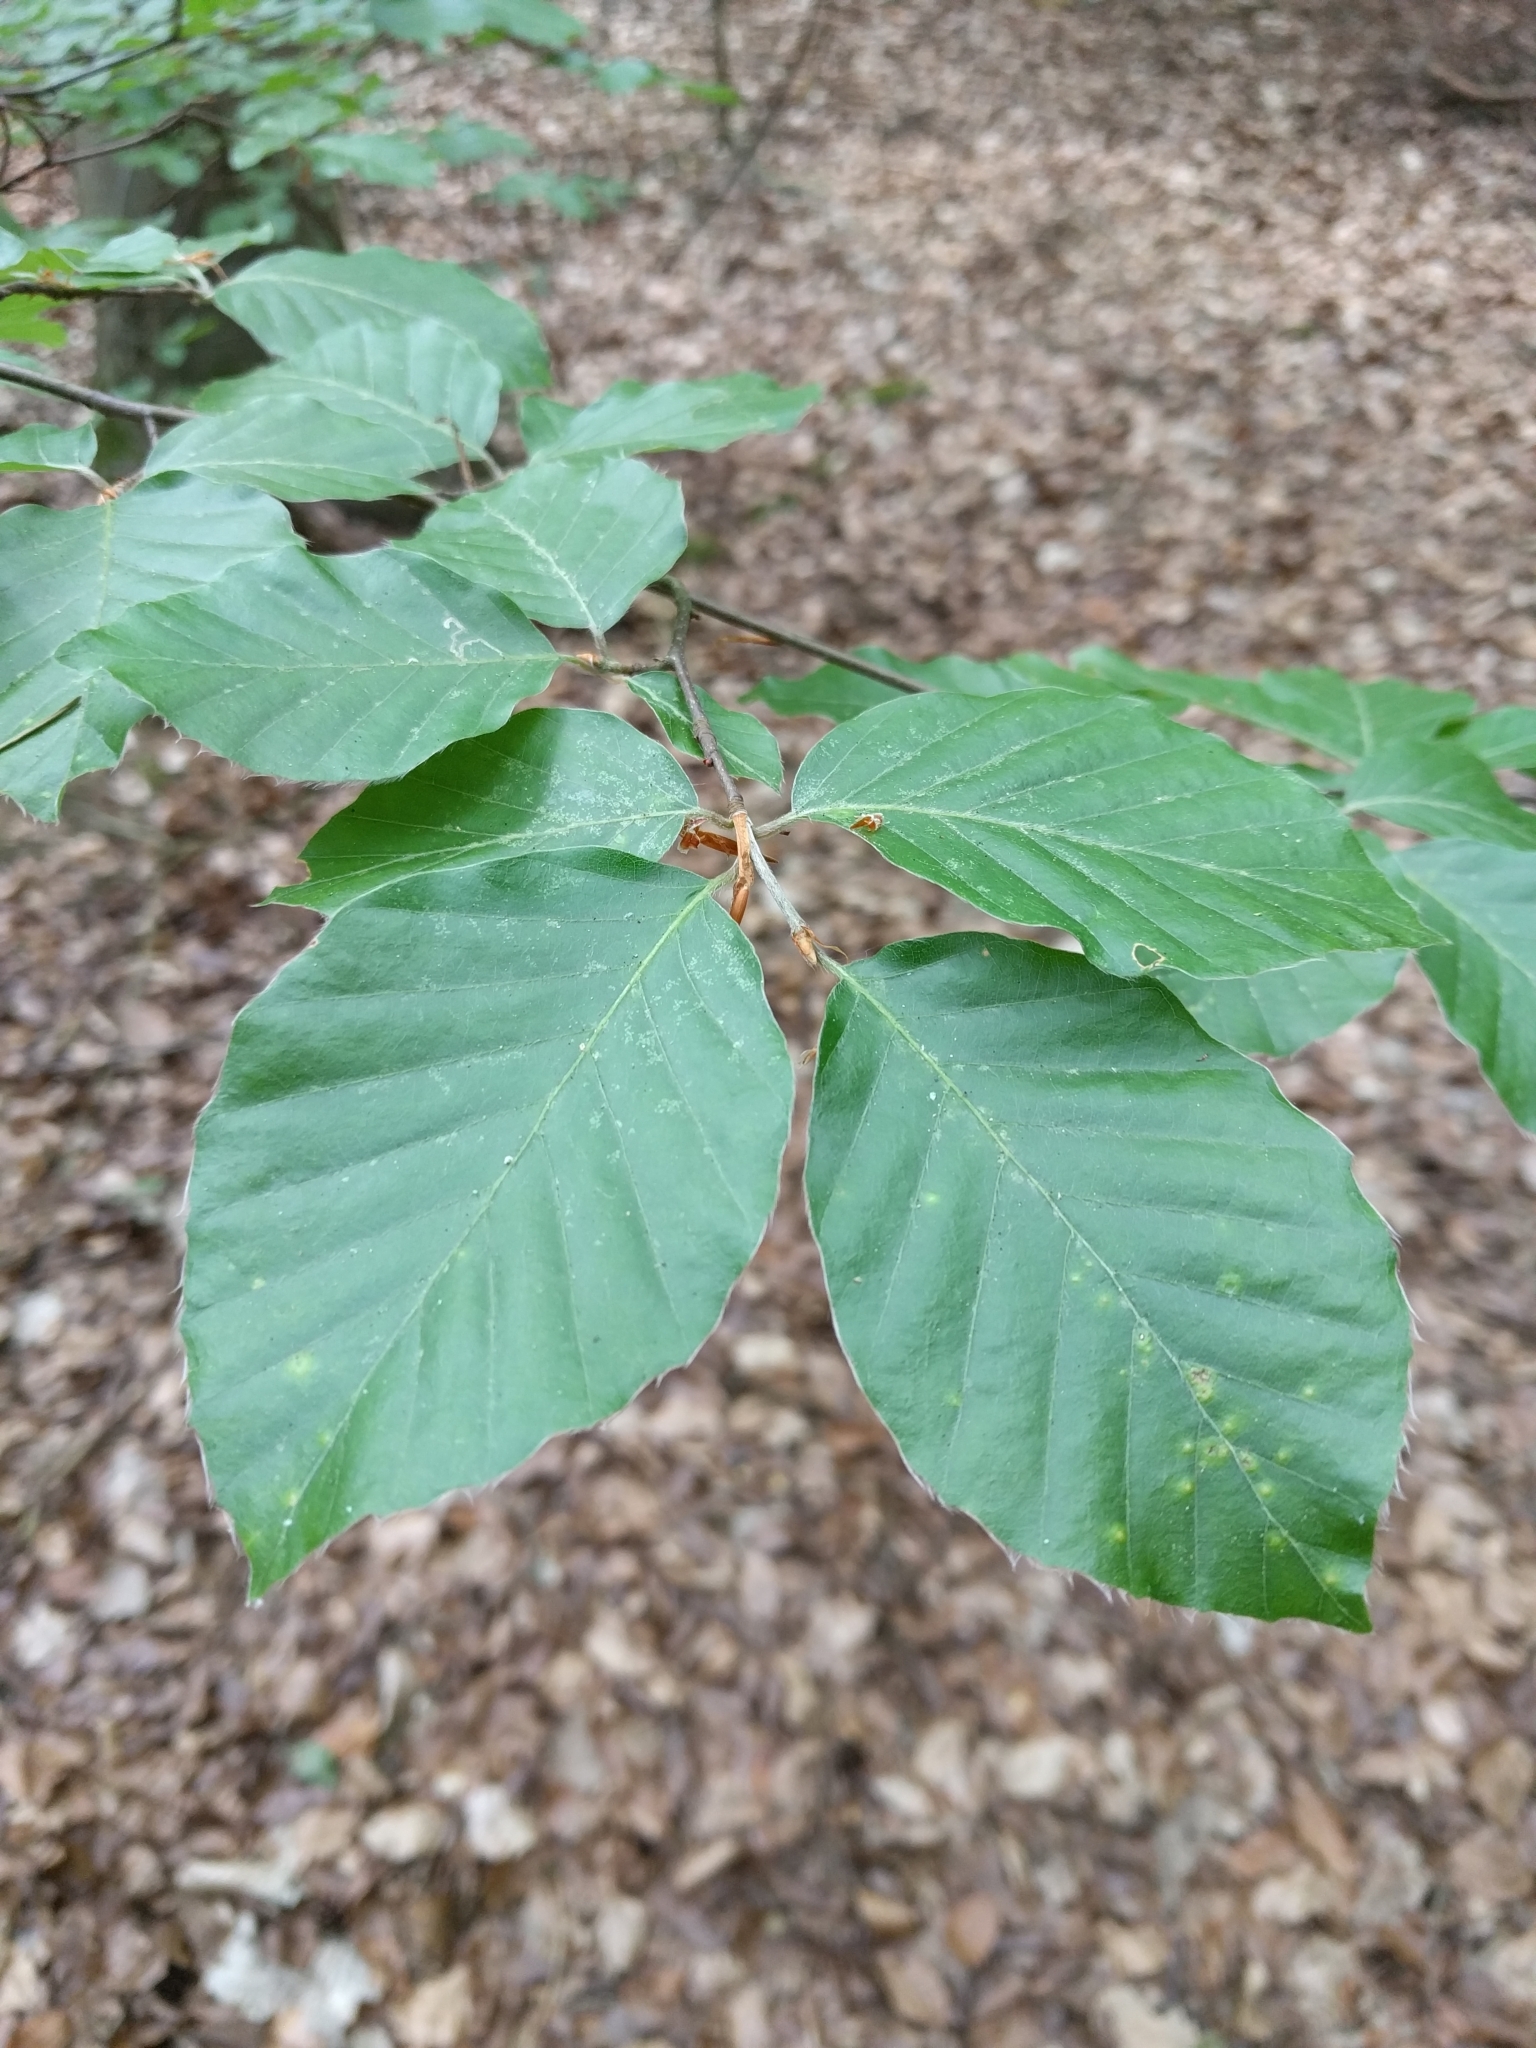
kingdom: Plantae
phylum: Tracheophyta
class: Magnoliopsida
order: Fagales
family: Fagaceae
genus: Fagus
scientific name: Fagus sylvatica
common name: Beech
